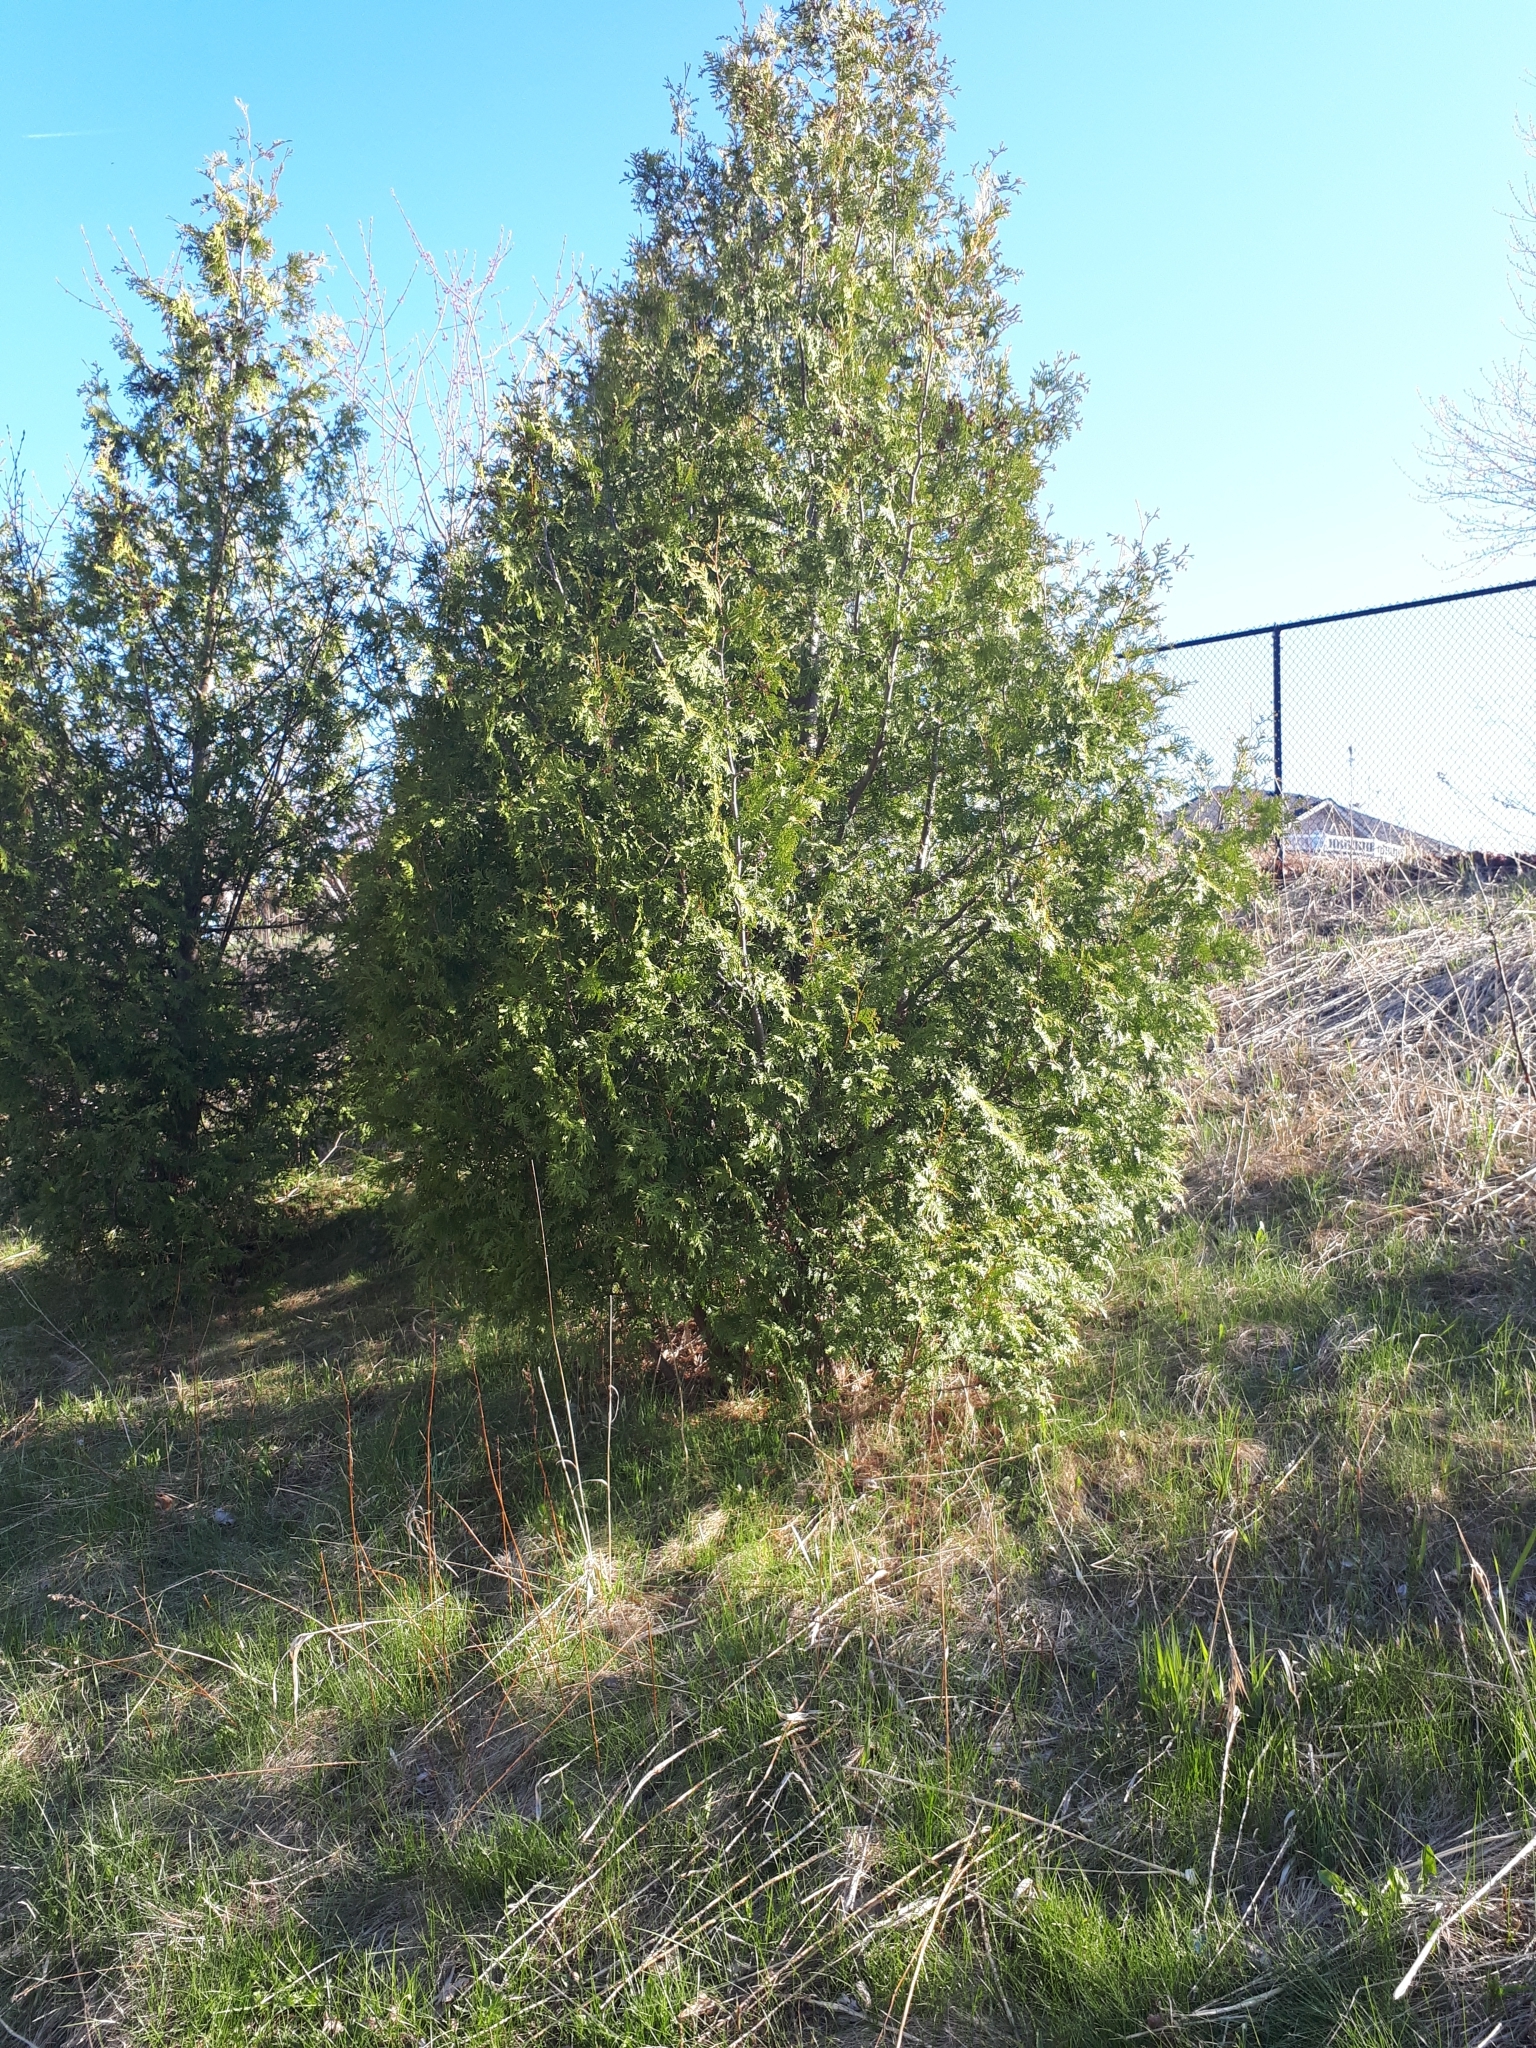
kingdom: Plantae
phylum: Tracheophyta
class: Pinopsida
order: Pinales
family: Cupressaceae
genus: Thuja
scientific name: Thuja occidentalis
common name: Northern white-cedar
